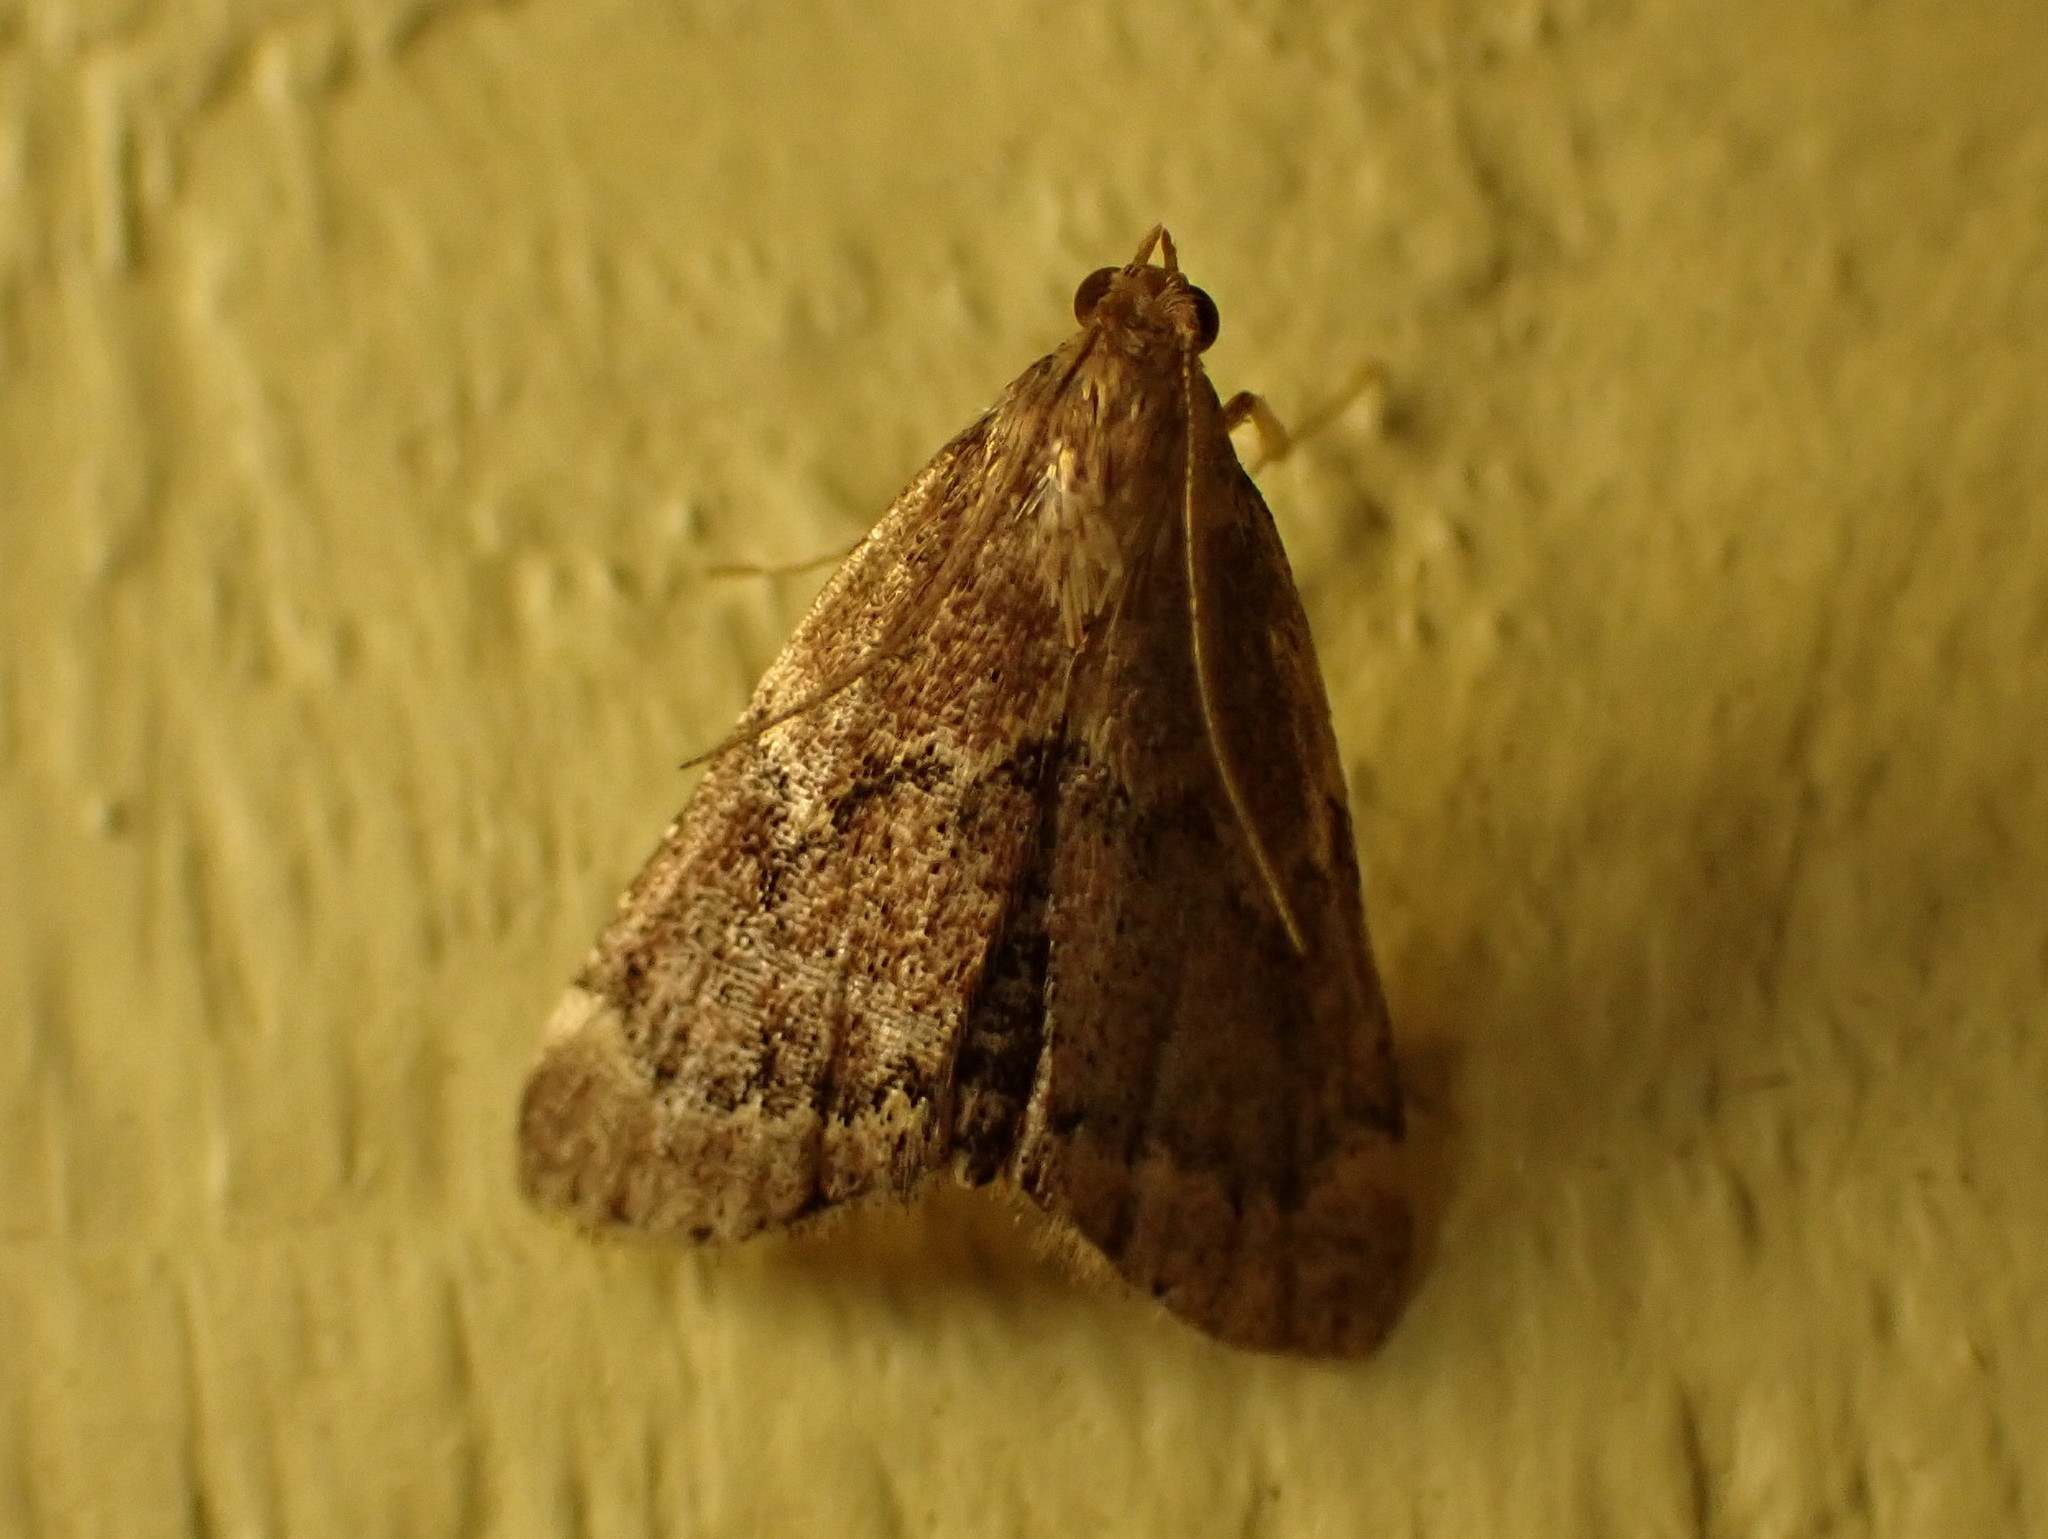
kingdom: Animalia
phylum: Arthropoda
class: Insecta
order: Lepidoptera
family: Pyralidae
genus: Hypsopygia
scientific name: Hypsopygia intermedialis
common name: Red-shawled moth
